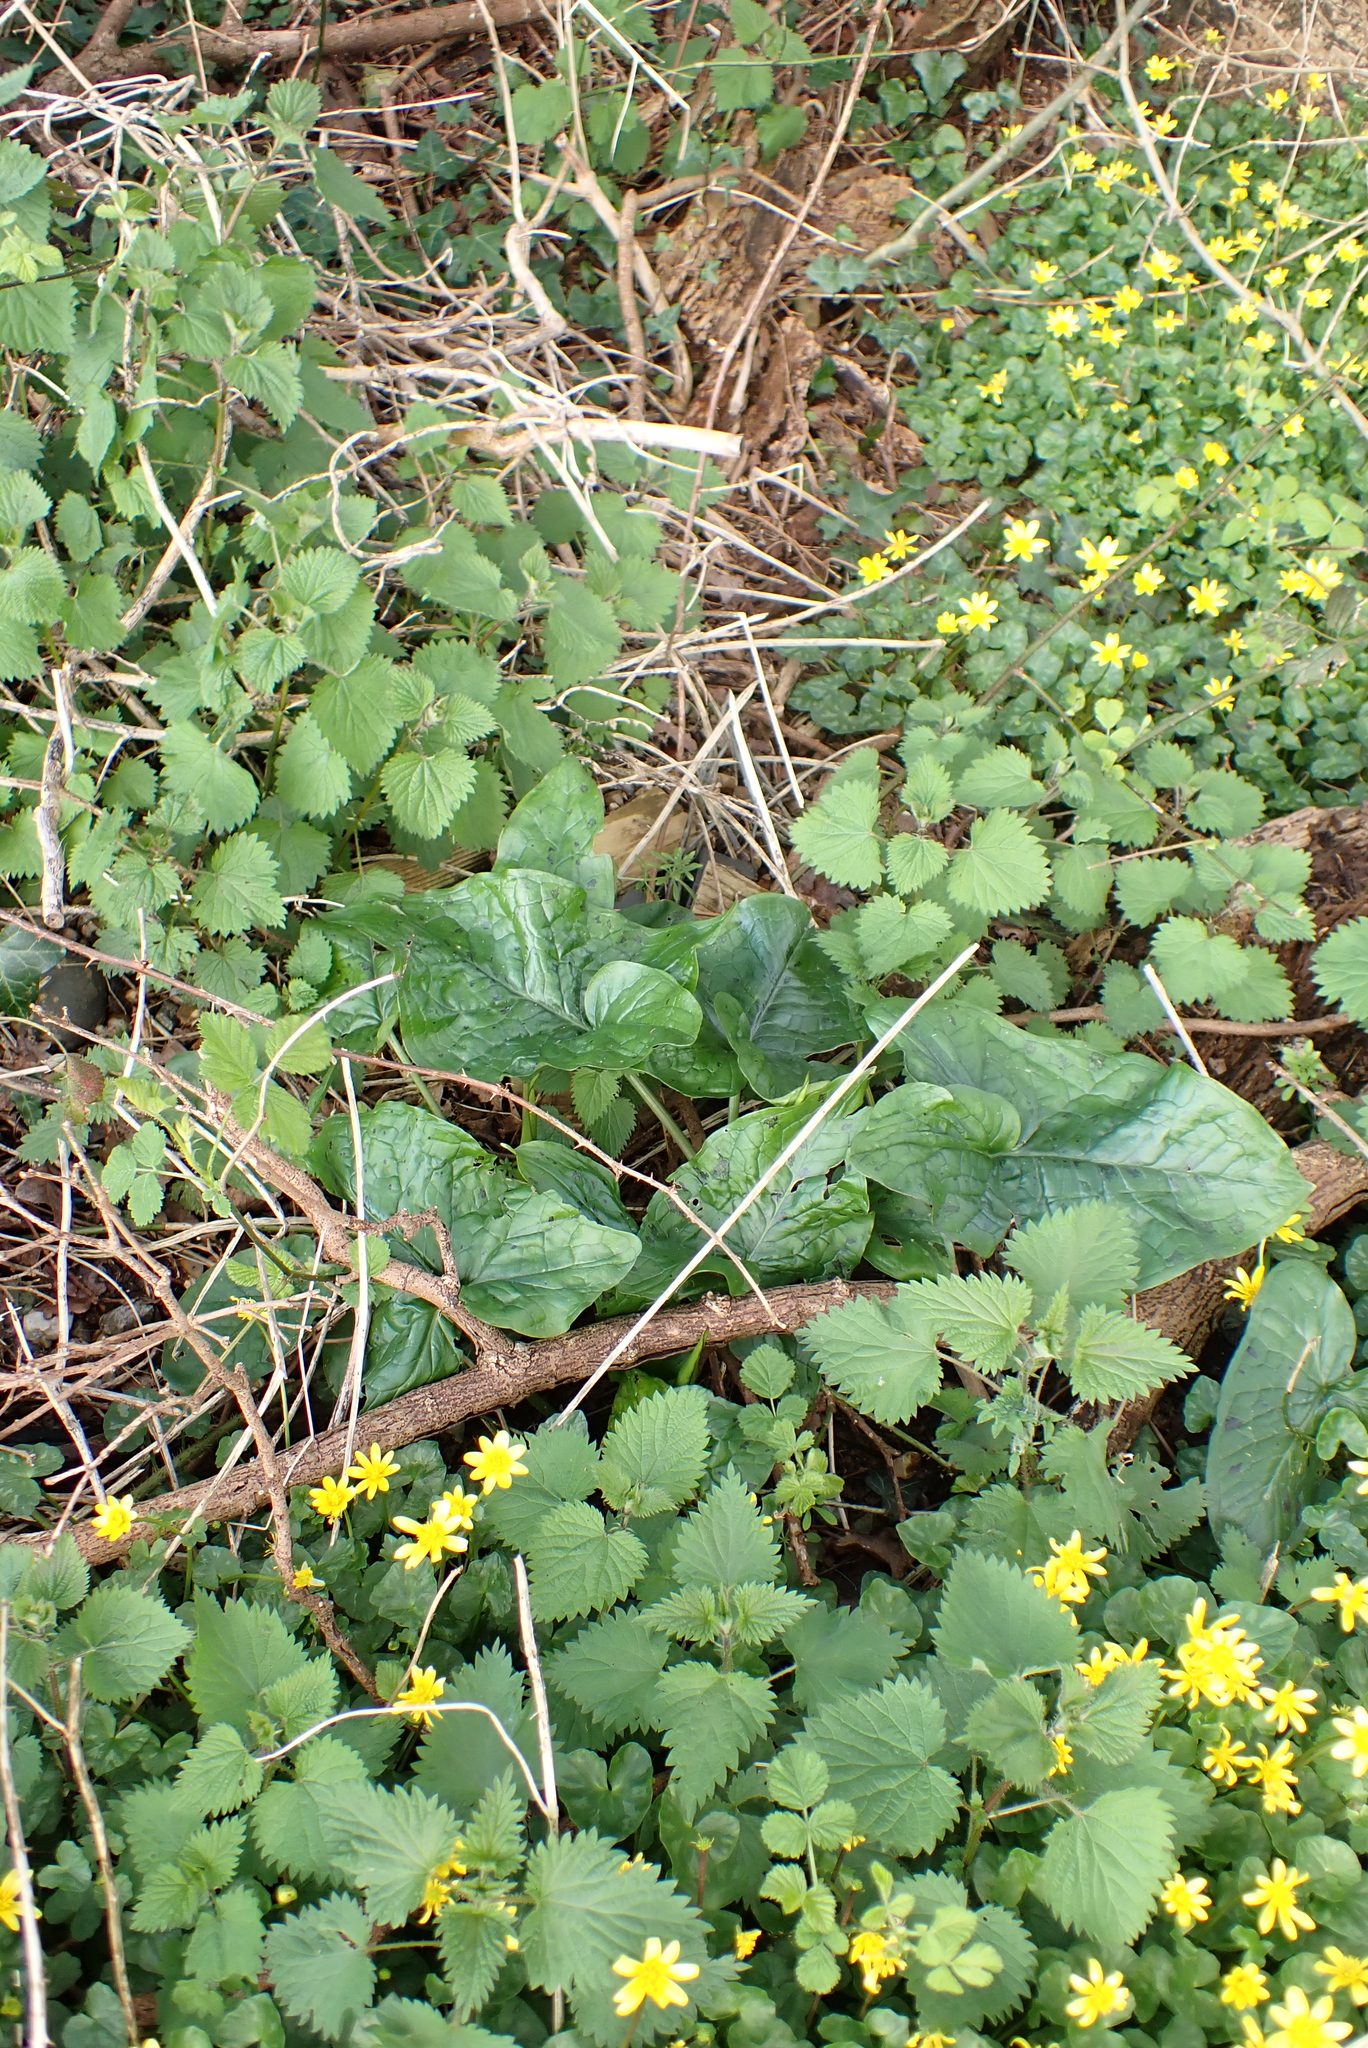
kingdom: Plantae
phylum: Tracheophyta
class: Liliopsida
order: Alismatales
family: Araceae
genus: Arum
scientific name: Arum maculatum
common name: Lords-and-ladies
